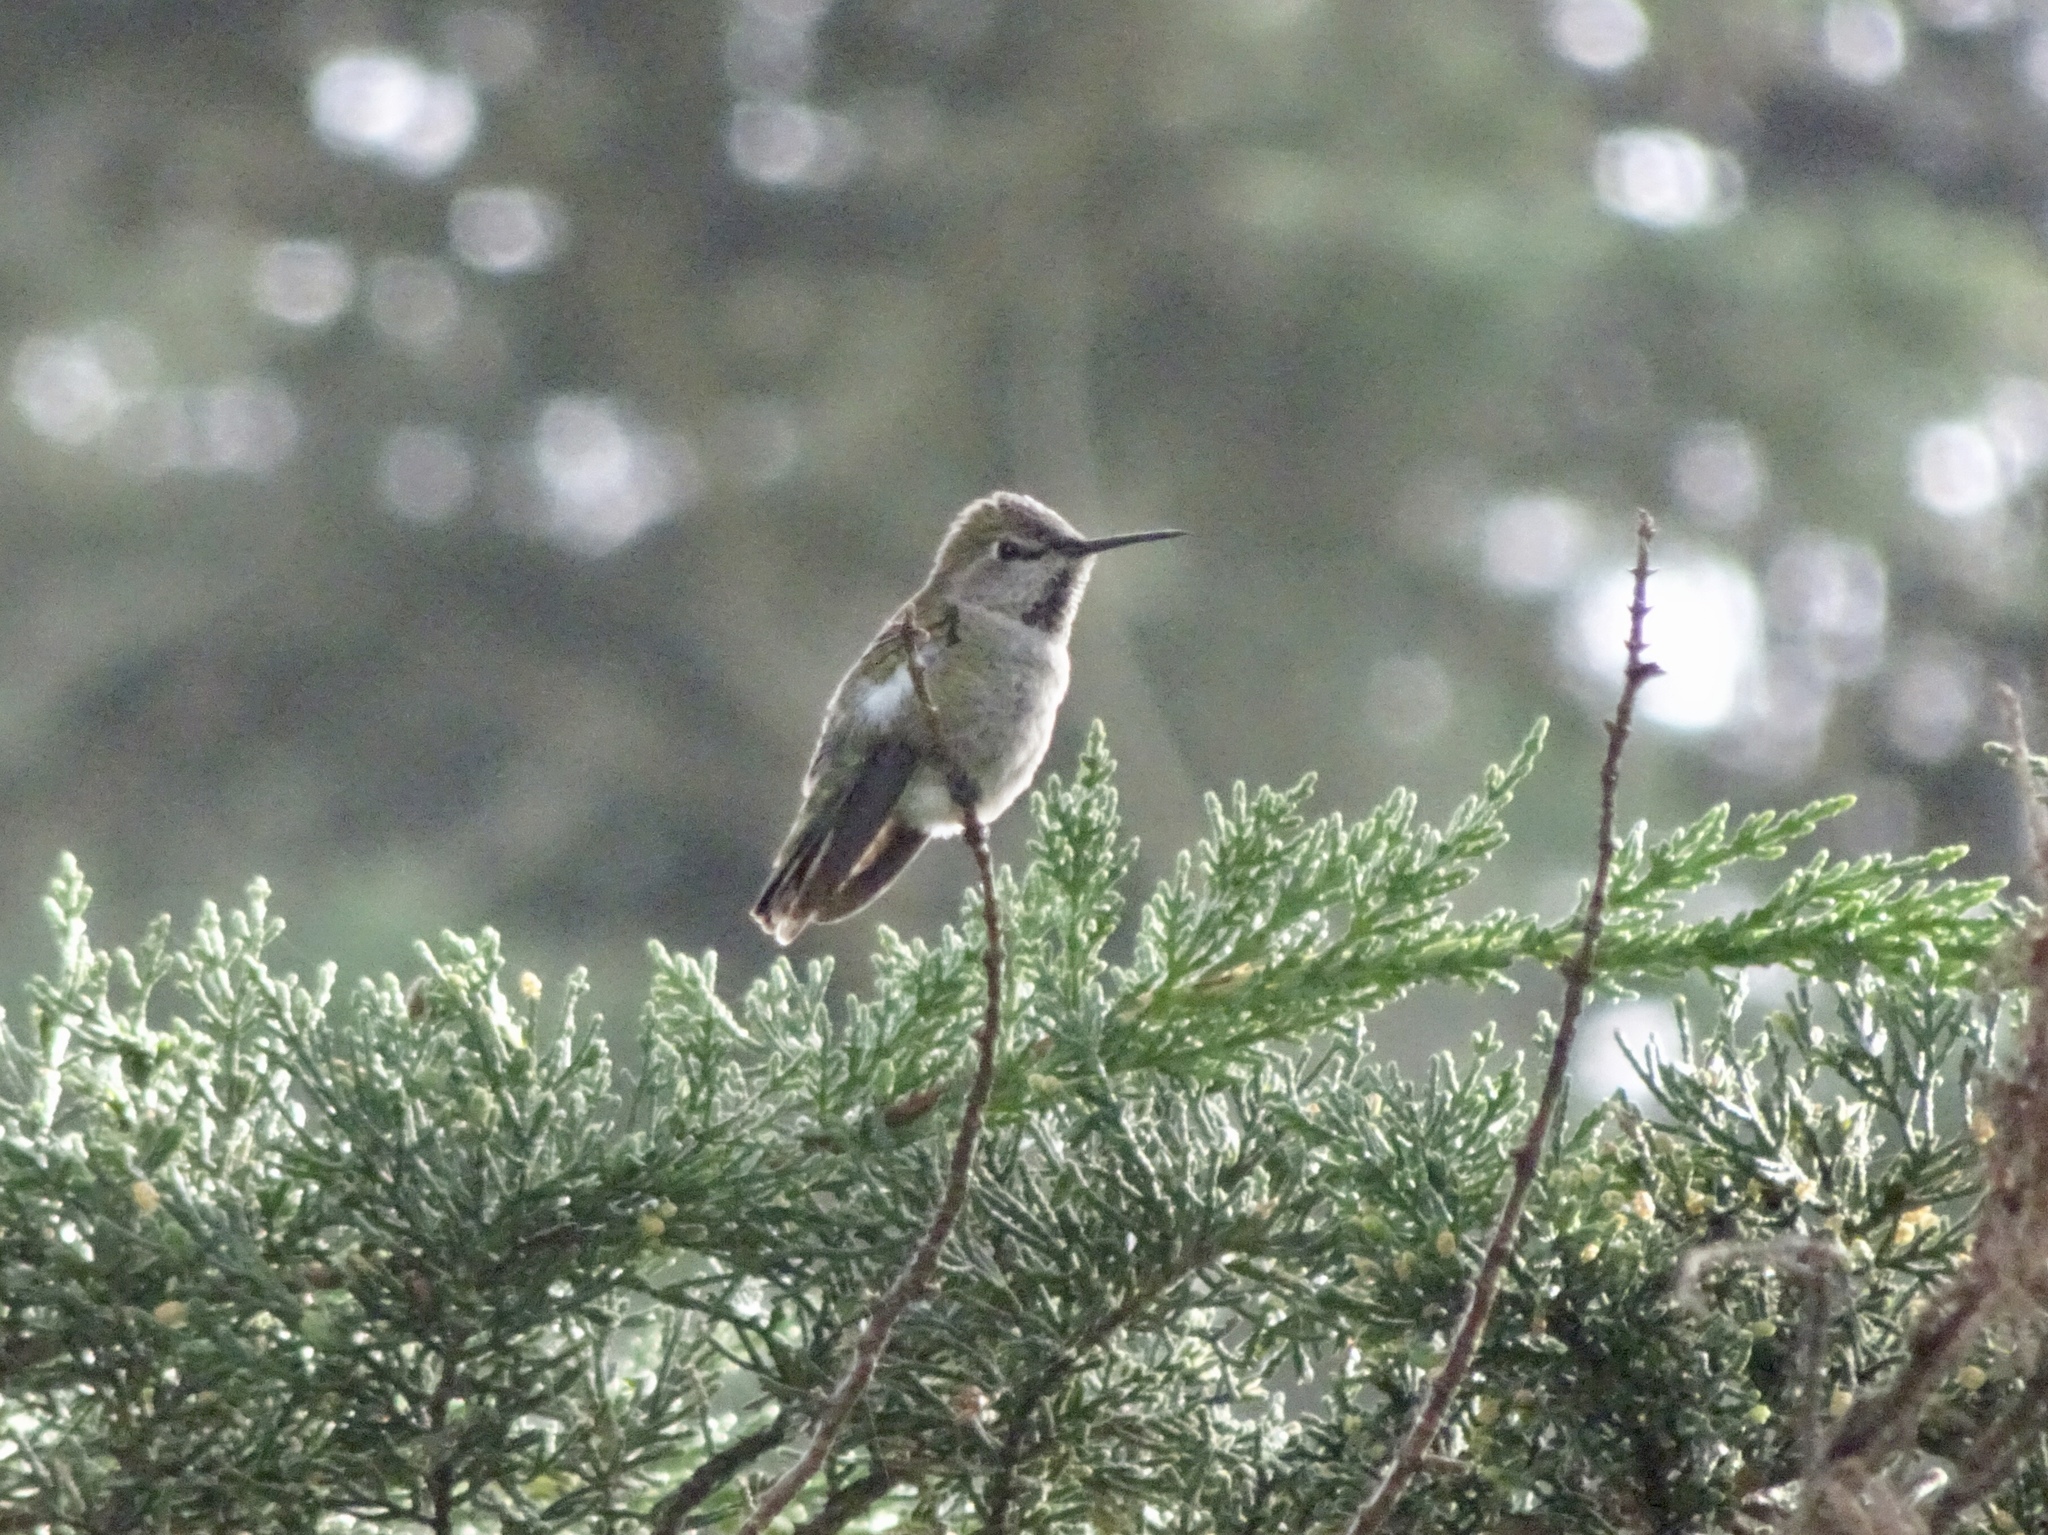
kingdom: Animalia
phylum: Chordata
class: Aves
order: Apodiformes
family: Trochilidae
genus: Calypte
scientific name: Calypte anna
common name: Anna's hummingbird
